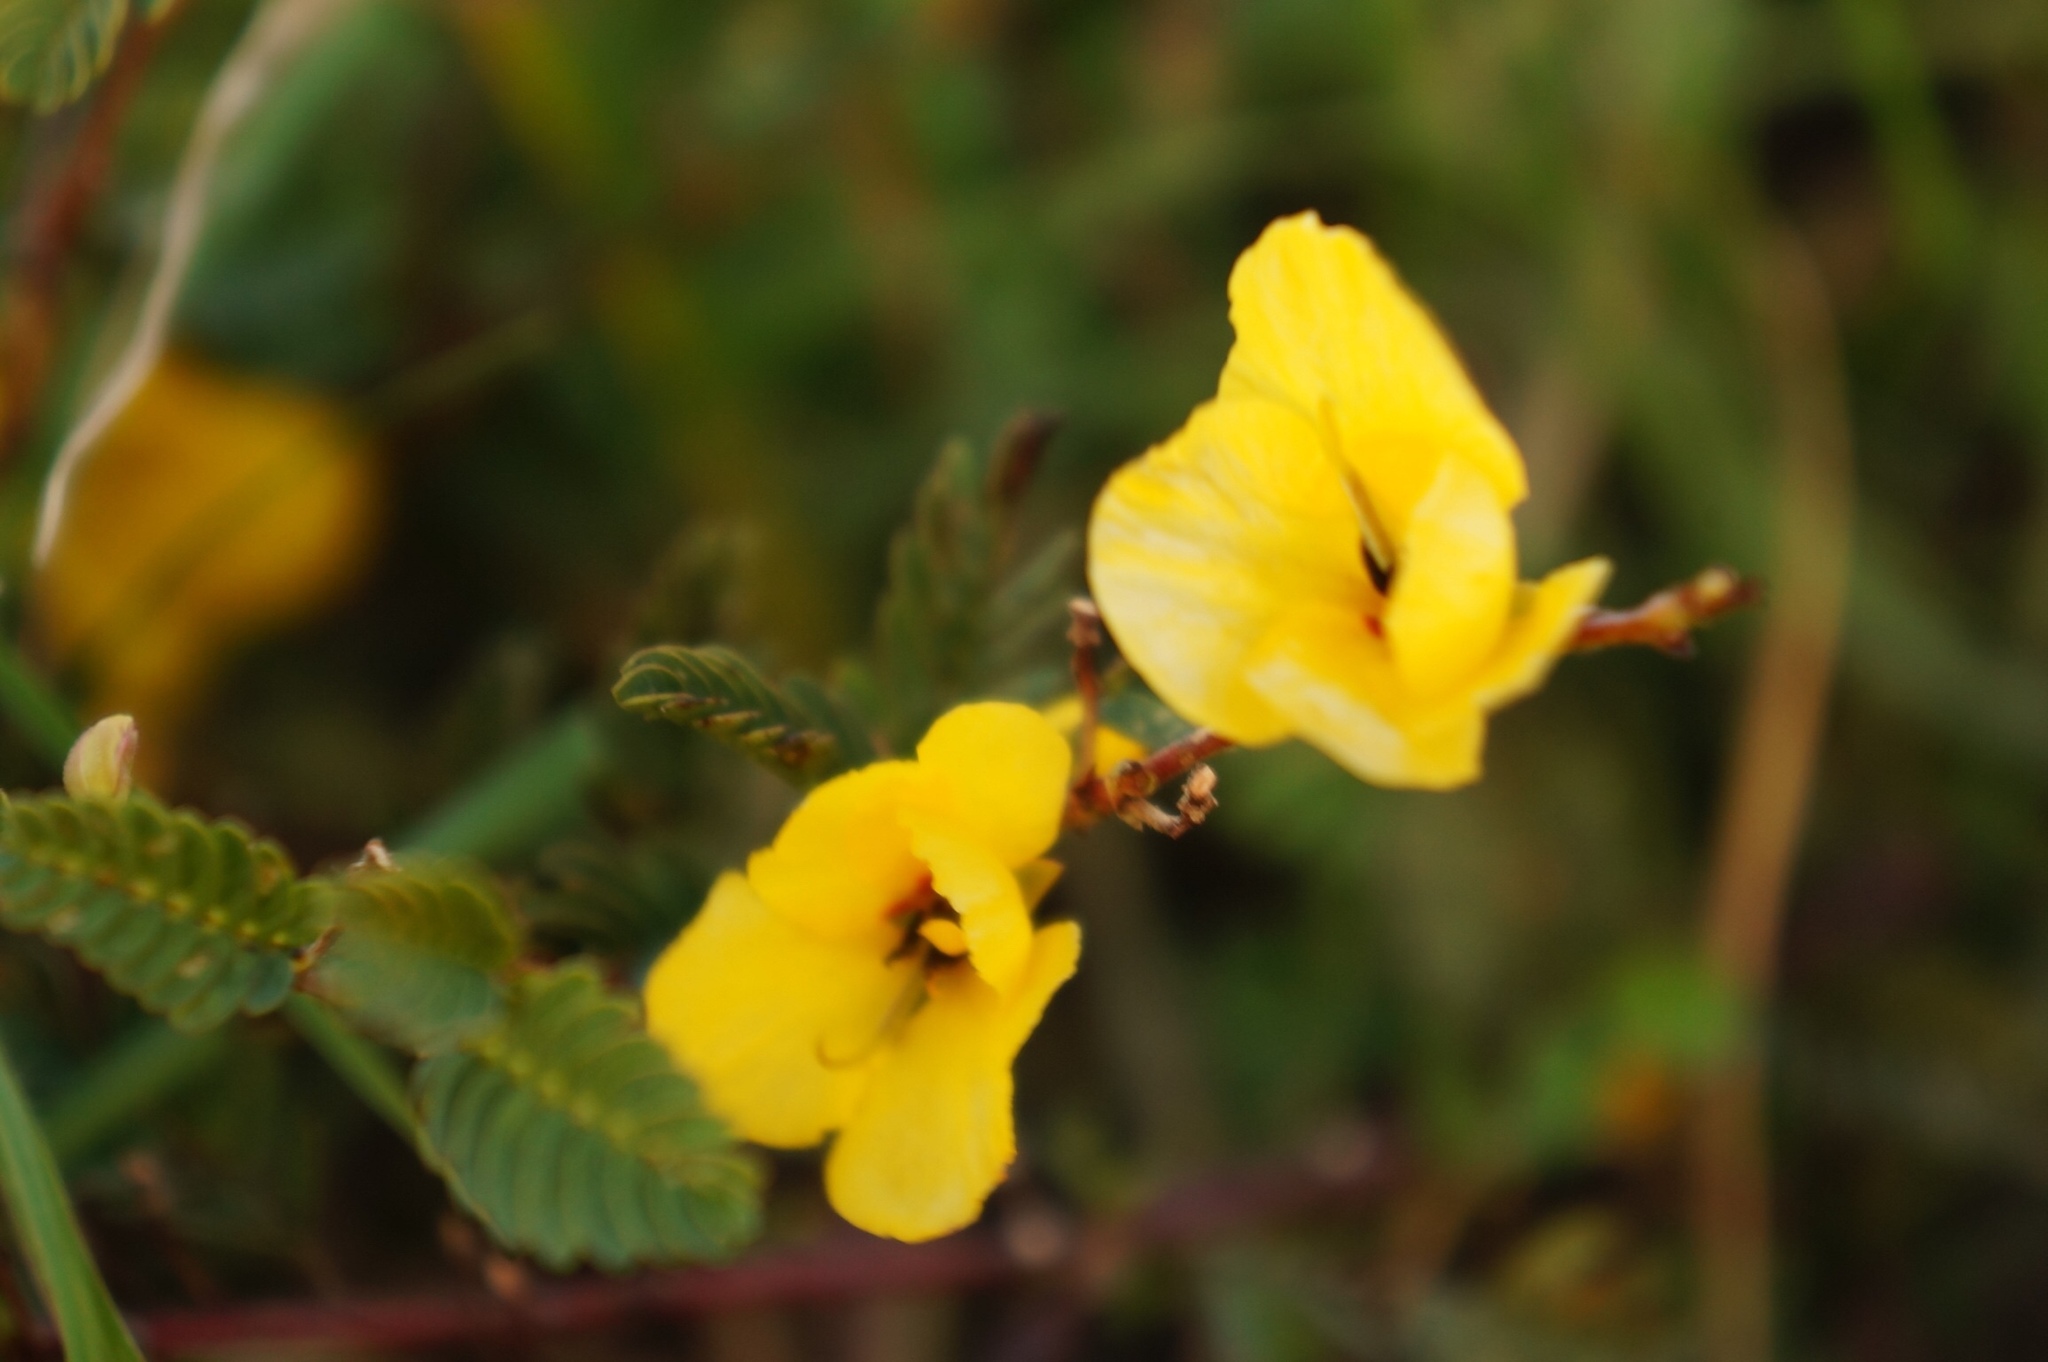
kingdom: Plantae
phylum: Tracheophyta
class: Magnoliopsida
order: Fabales
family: Fabaceae
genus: Chamaecrista
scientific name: Chamaecrista chamaecristoides
